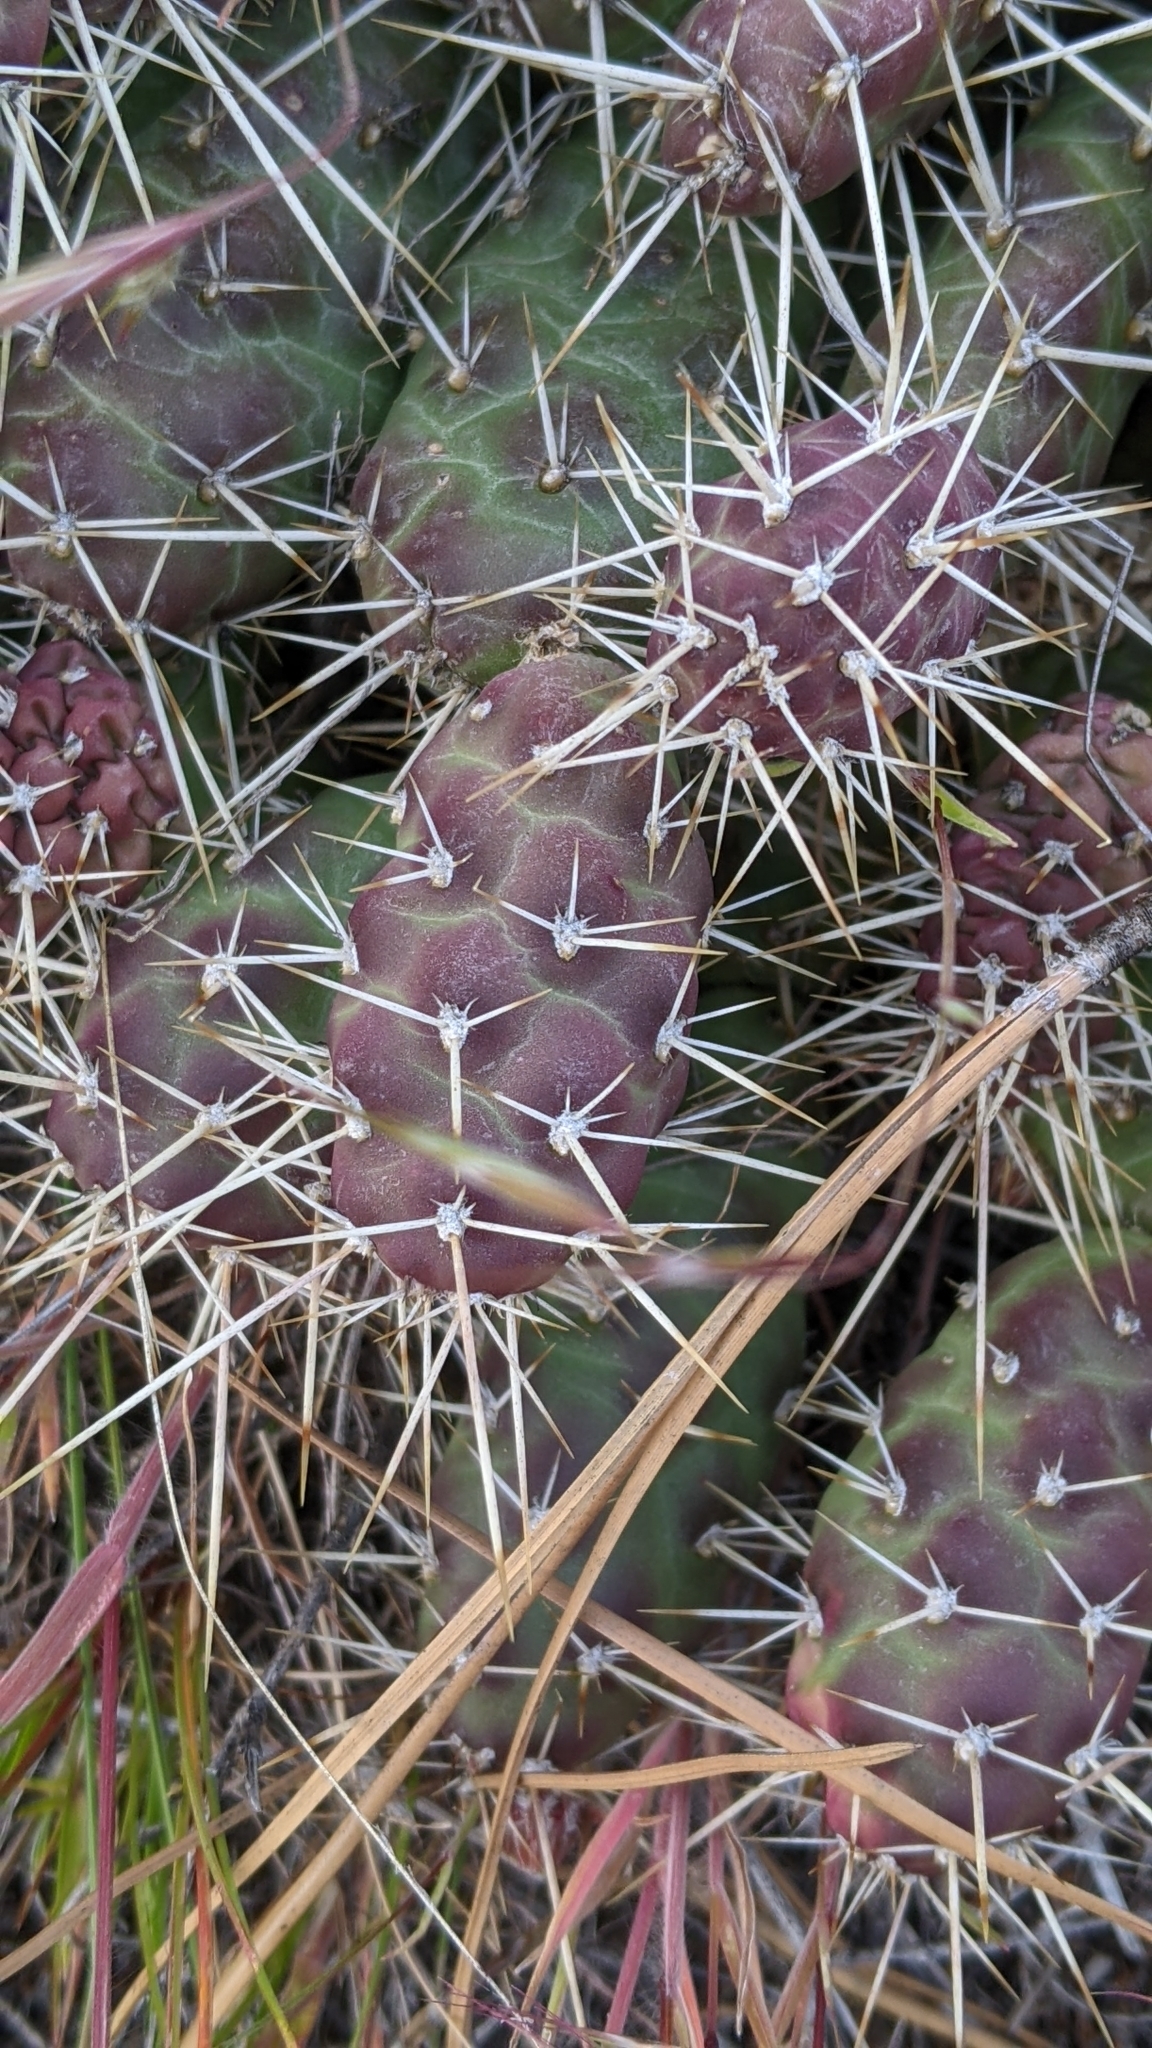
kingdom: Plantae
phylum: Tracheophyta
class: Magnoliopsida
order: Caryophyllales
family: Cactaceae
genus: Opuntia
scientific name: Opuntia fragilis
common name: Brittle cactus
